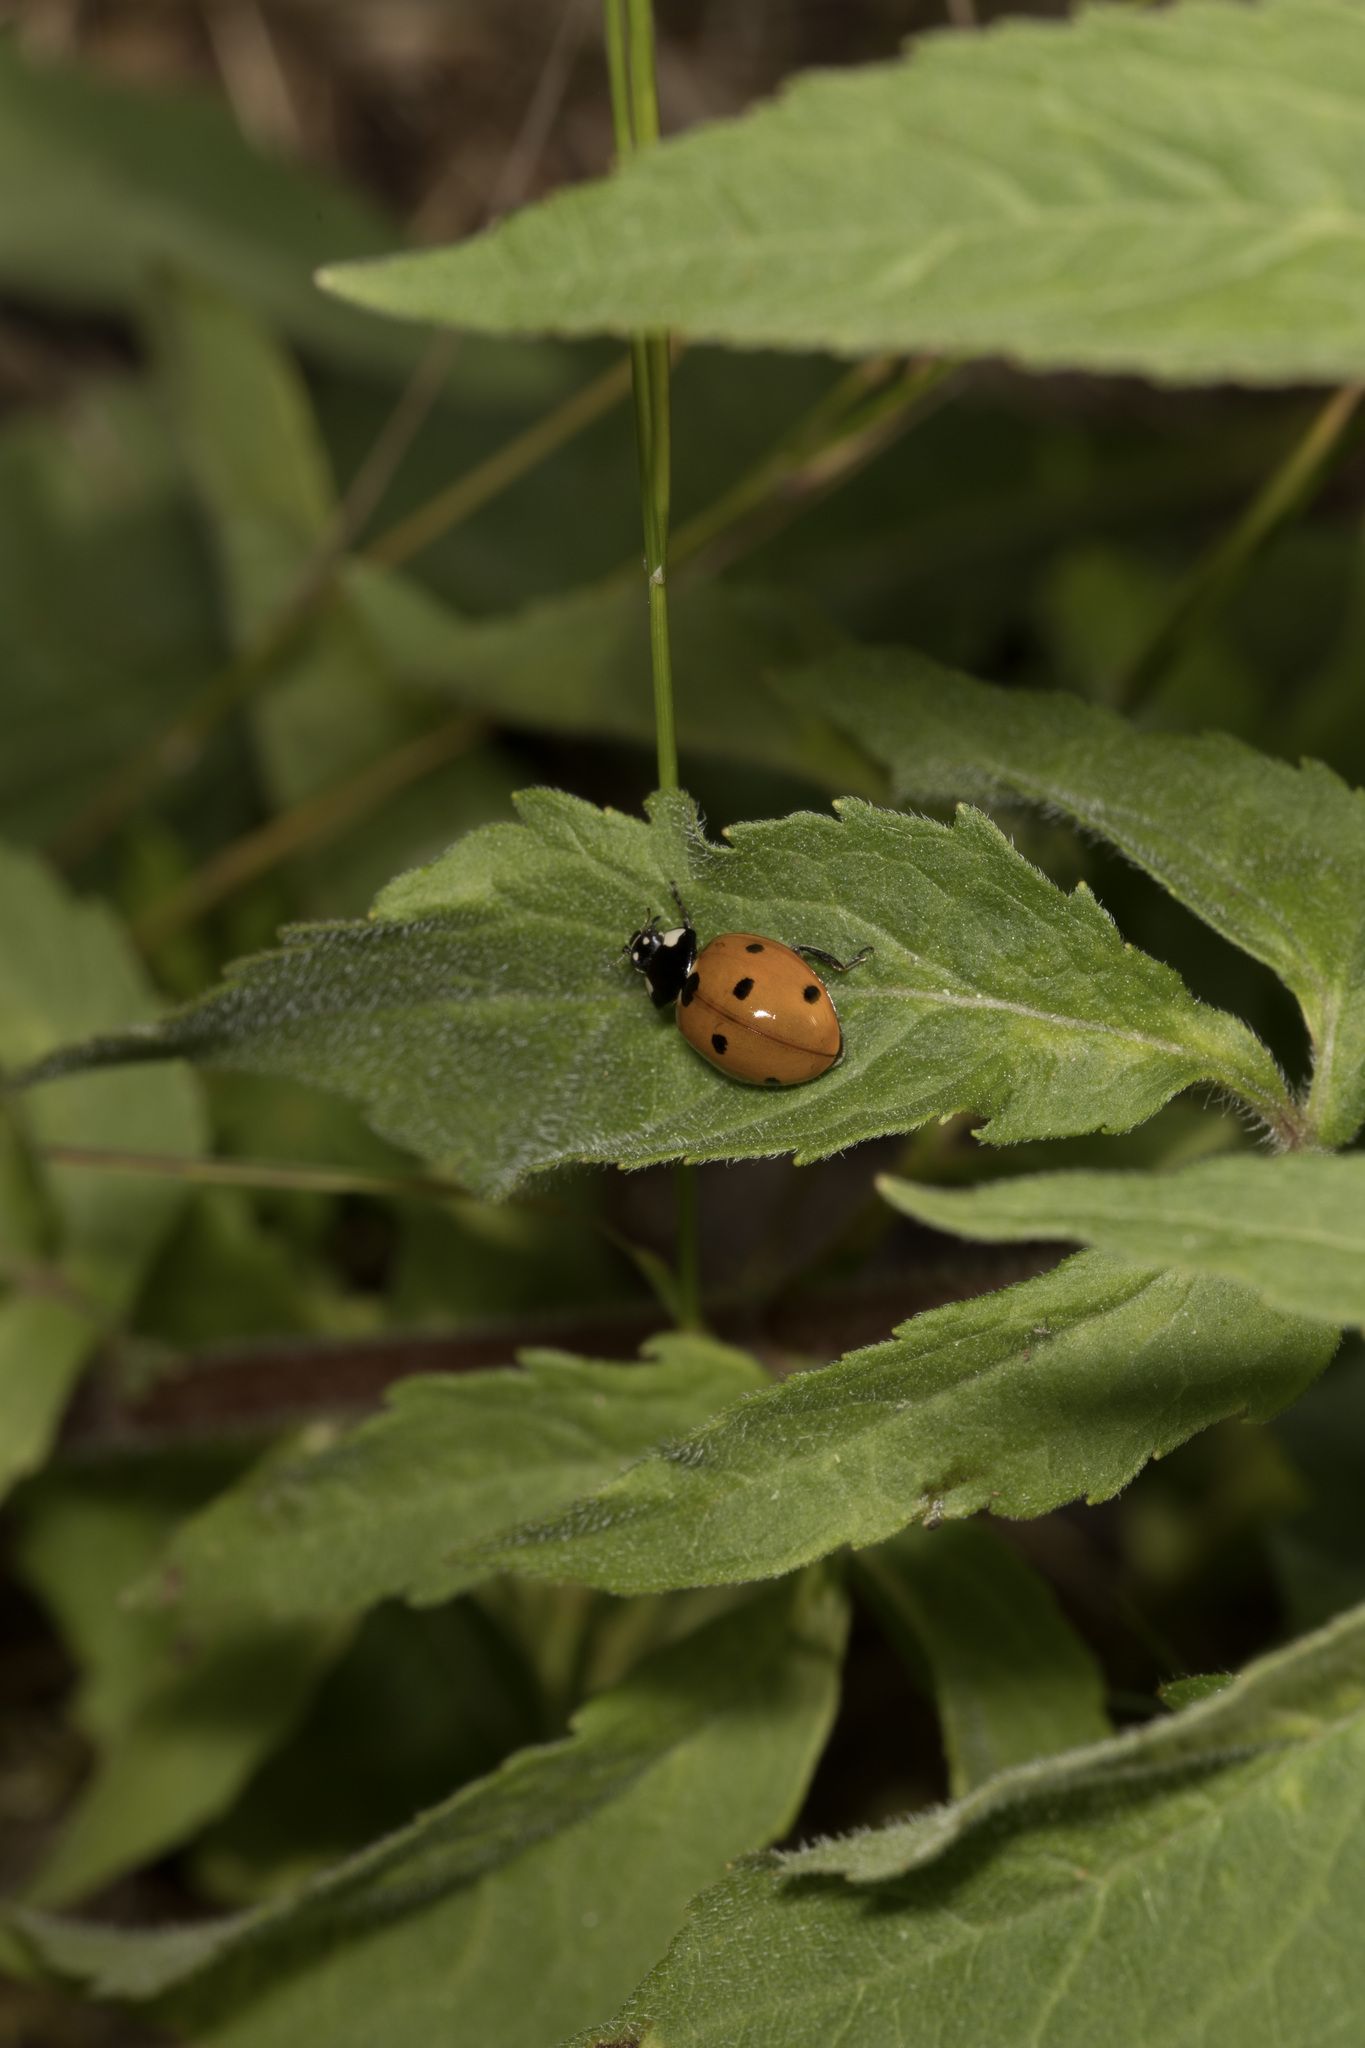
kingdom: Animalia
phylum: Arthropoda
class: Insecta
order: Coleoptera
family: Coccinellidae
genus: Coccinella
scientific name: Coccinella septempunctata
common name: Sevenspotted lady beetle
